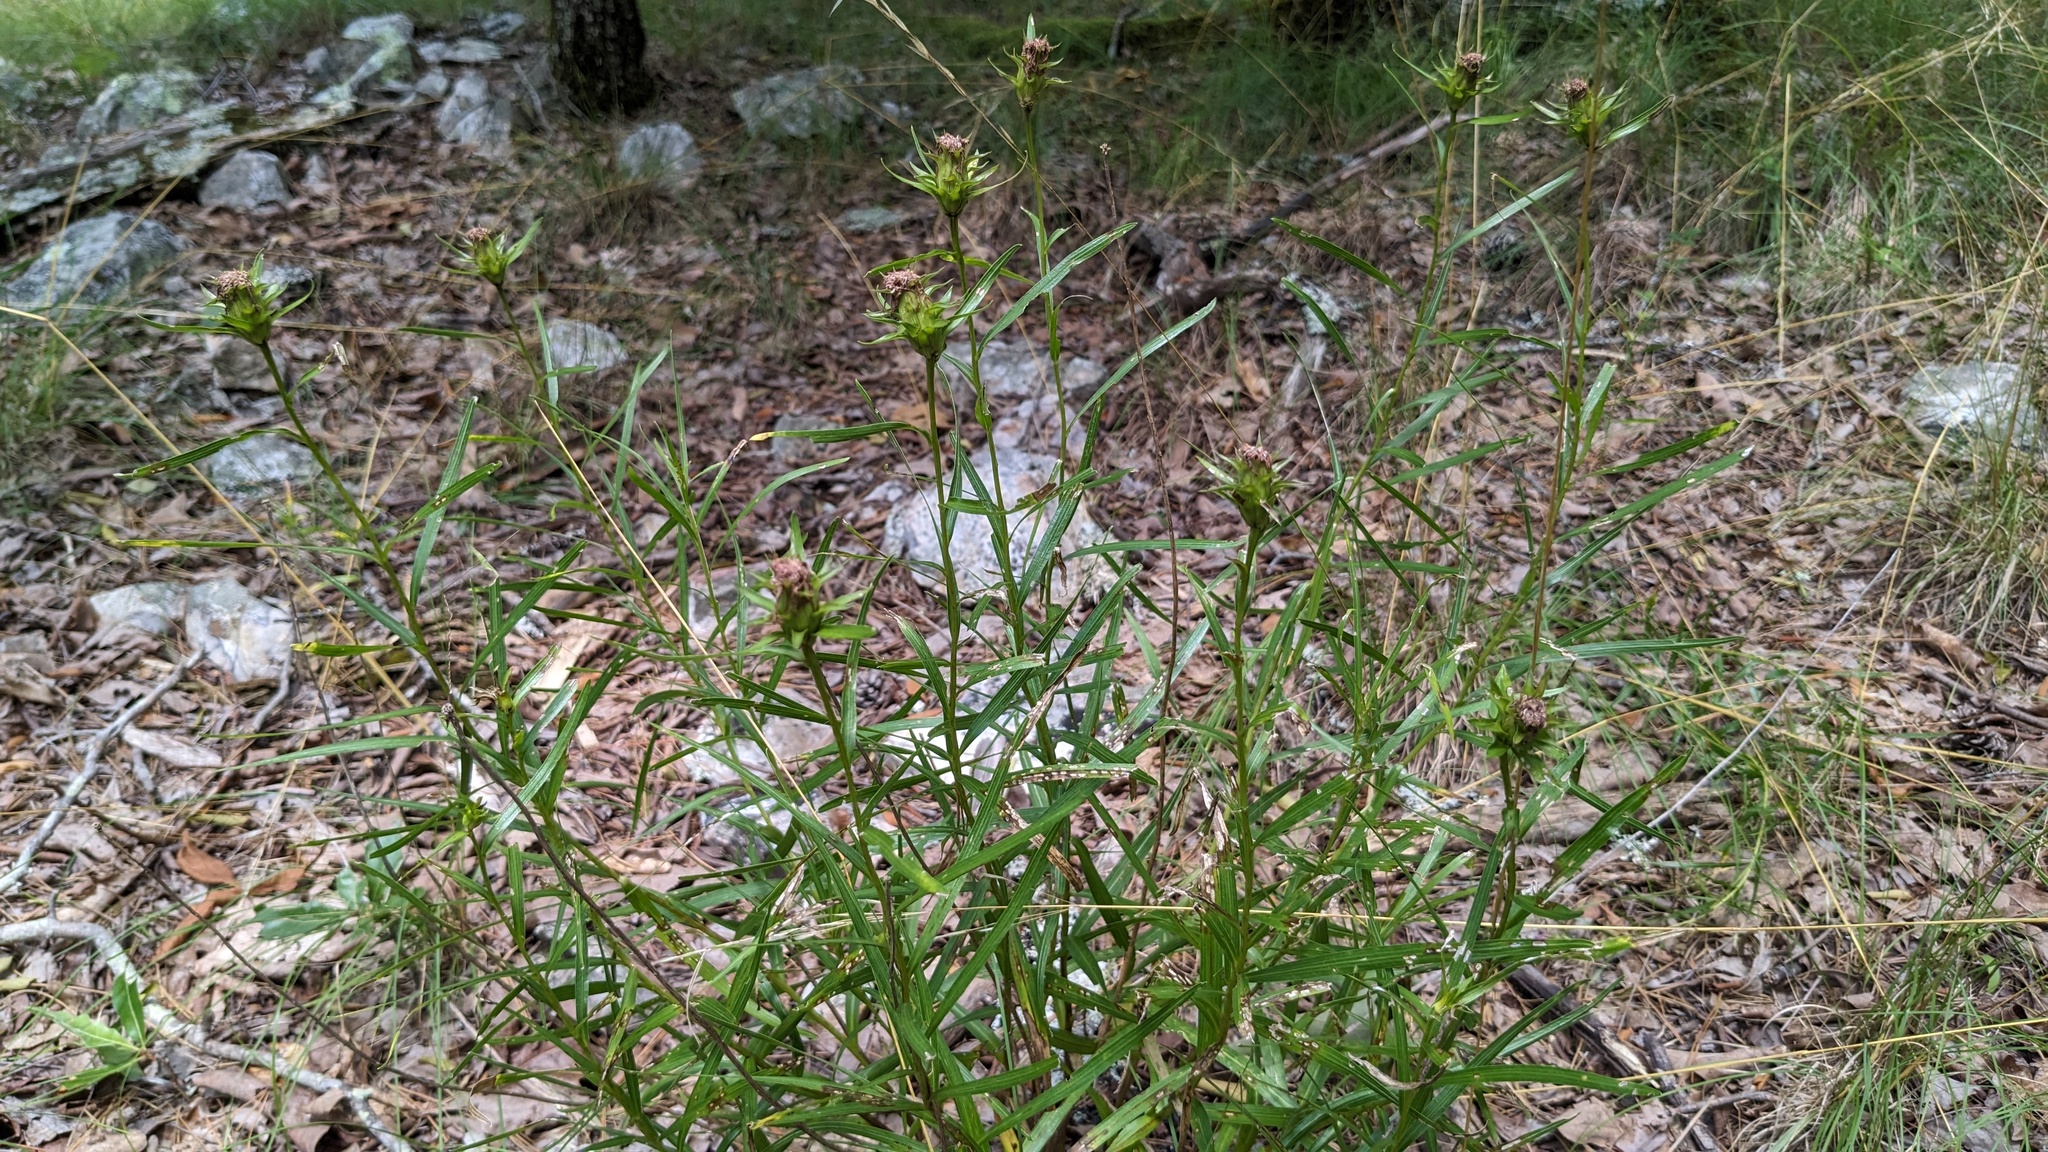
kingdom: Plantae
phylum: Tracheophyta
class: Magnoliopsida
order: Asterales
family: Asteraceae
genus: Liatris
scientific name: Liatris compacta
